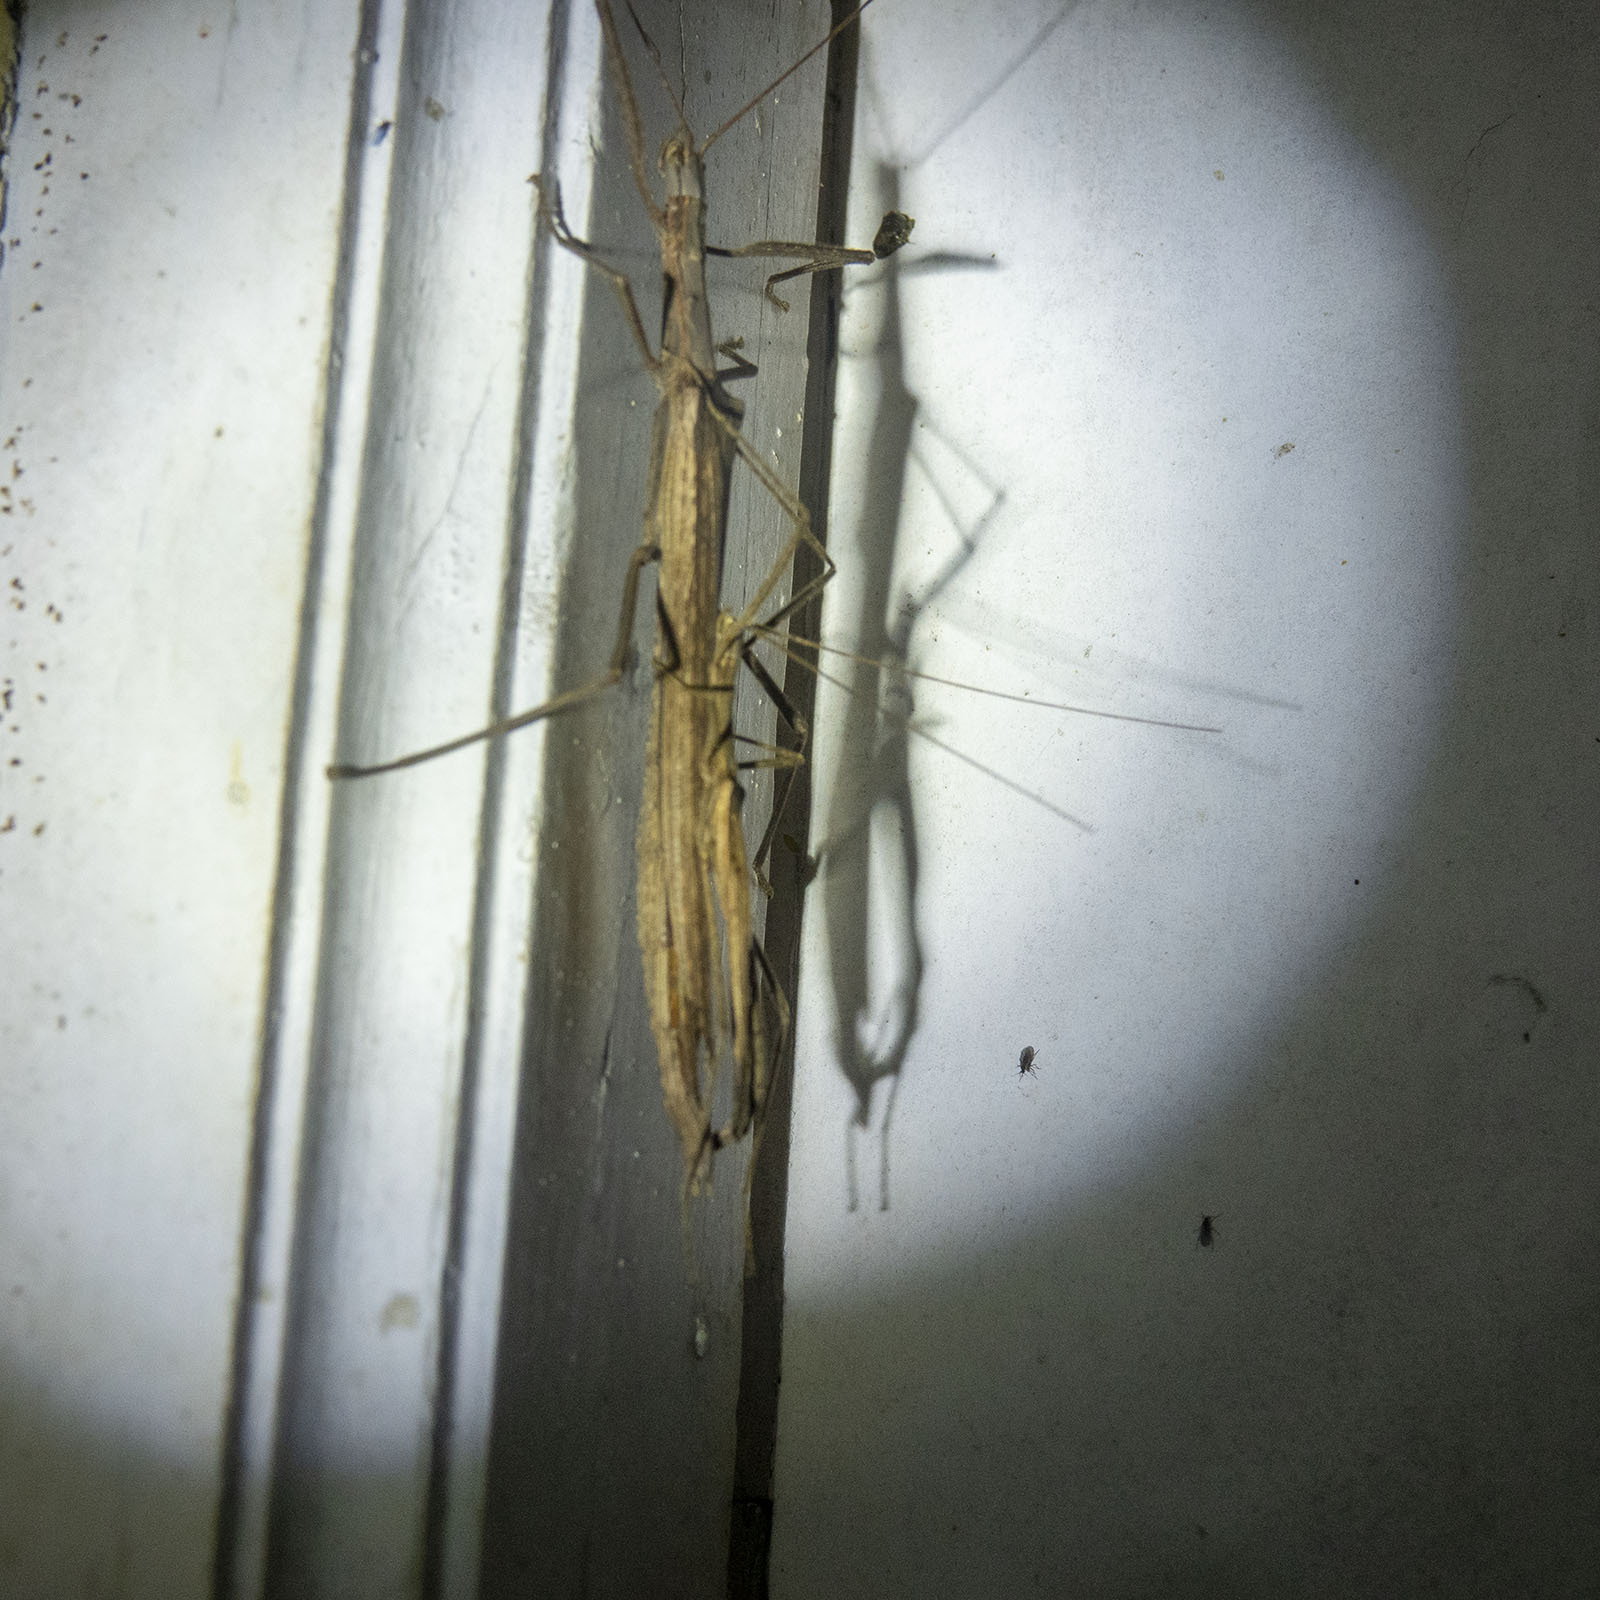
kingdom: Animalia
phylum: Arthropoda
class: Insecta
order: Phasmida
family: Lonchodidae
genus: Trachythorax
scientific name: Trachythorax sparaxes
